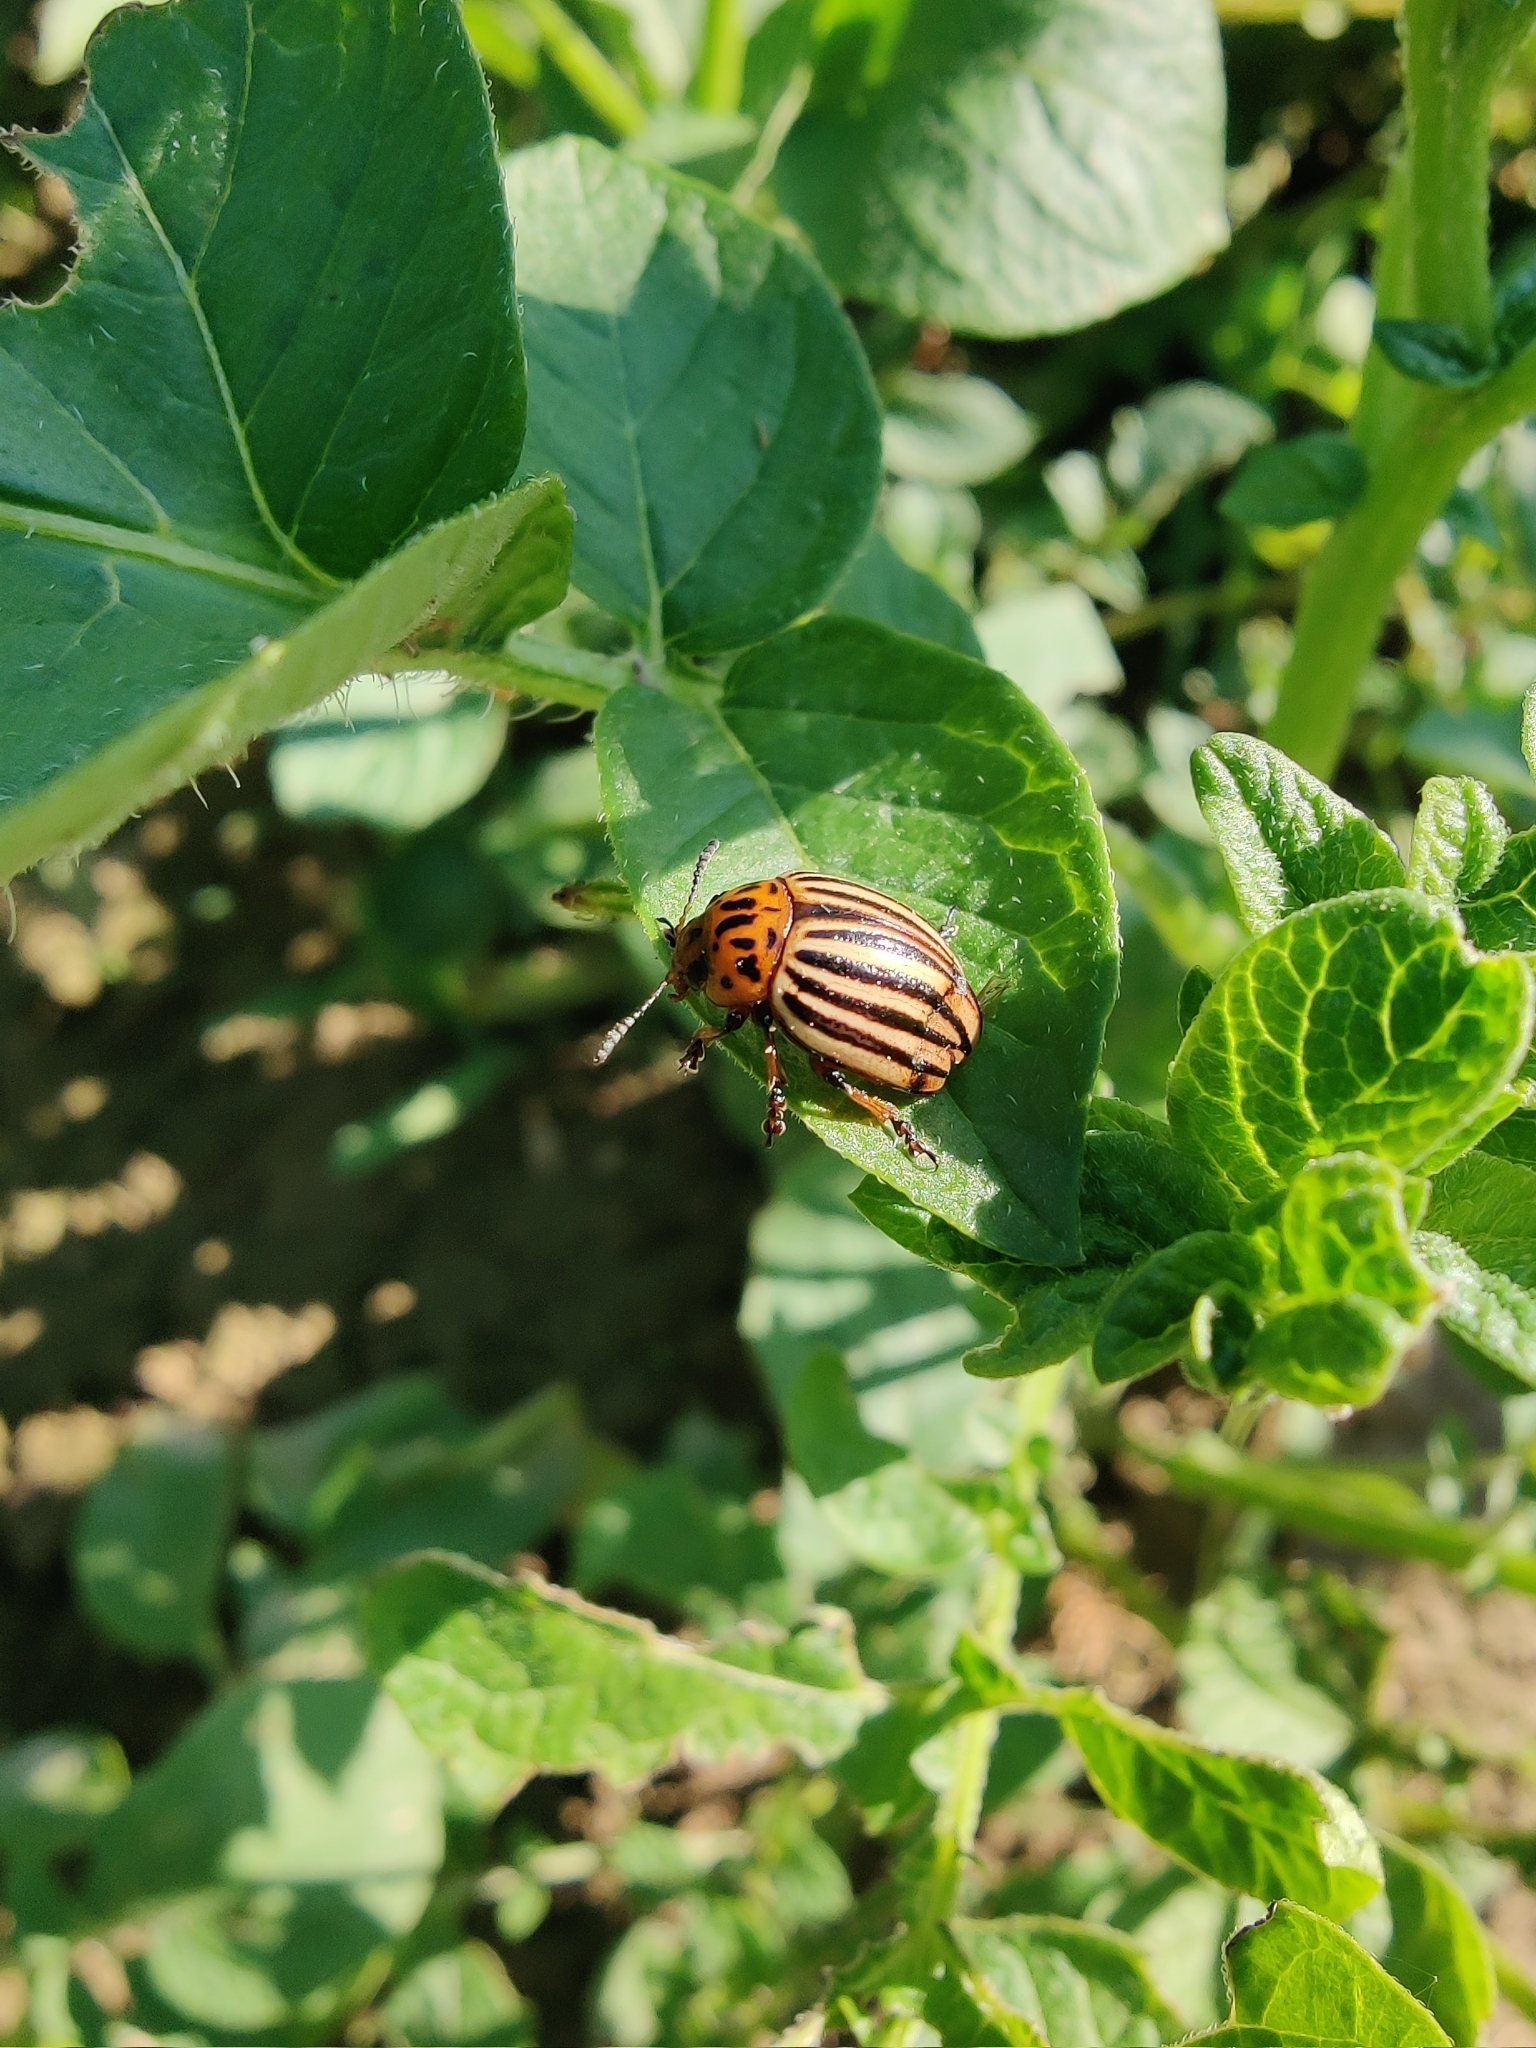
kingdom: Animalia
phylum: Arthropoda
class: Insecta
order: Coleoptera
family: Chrysomelidae
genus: Leptinotarsa
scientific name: Leptinotarsa decemlineata
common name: Colorado potato beetle
